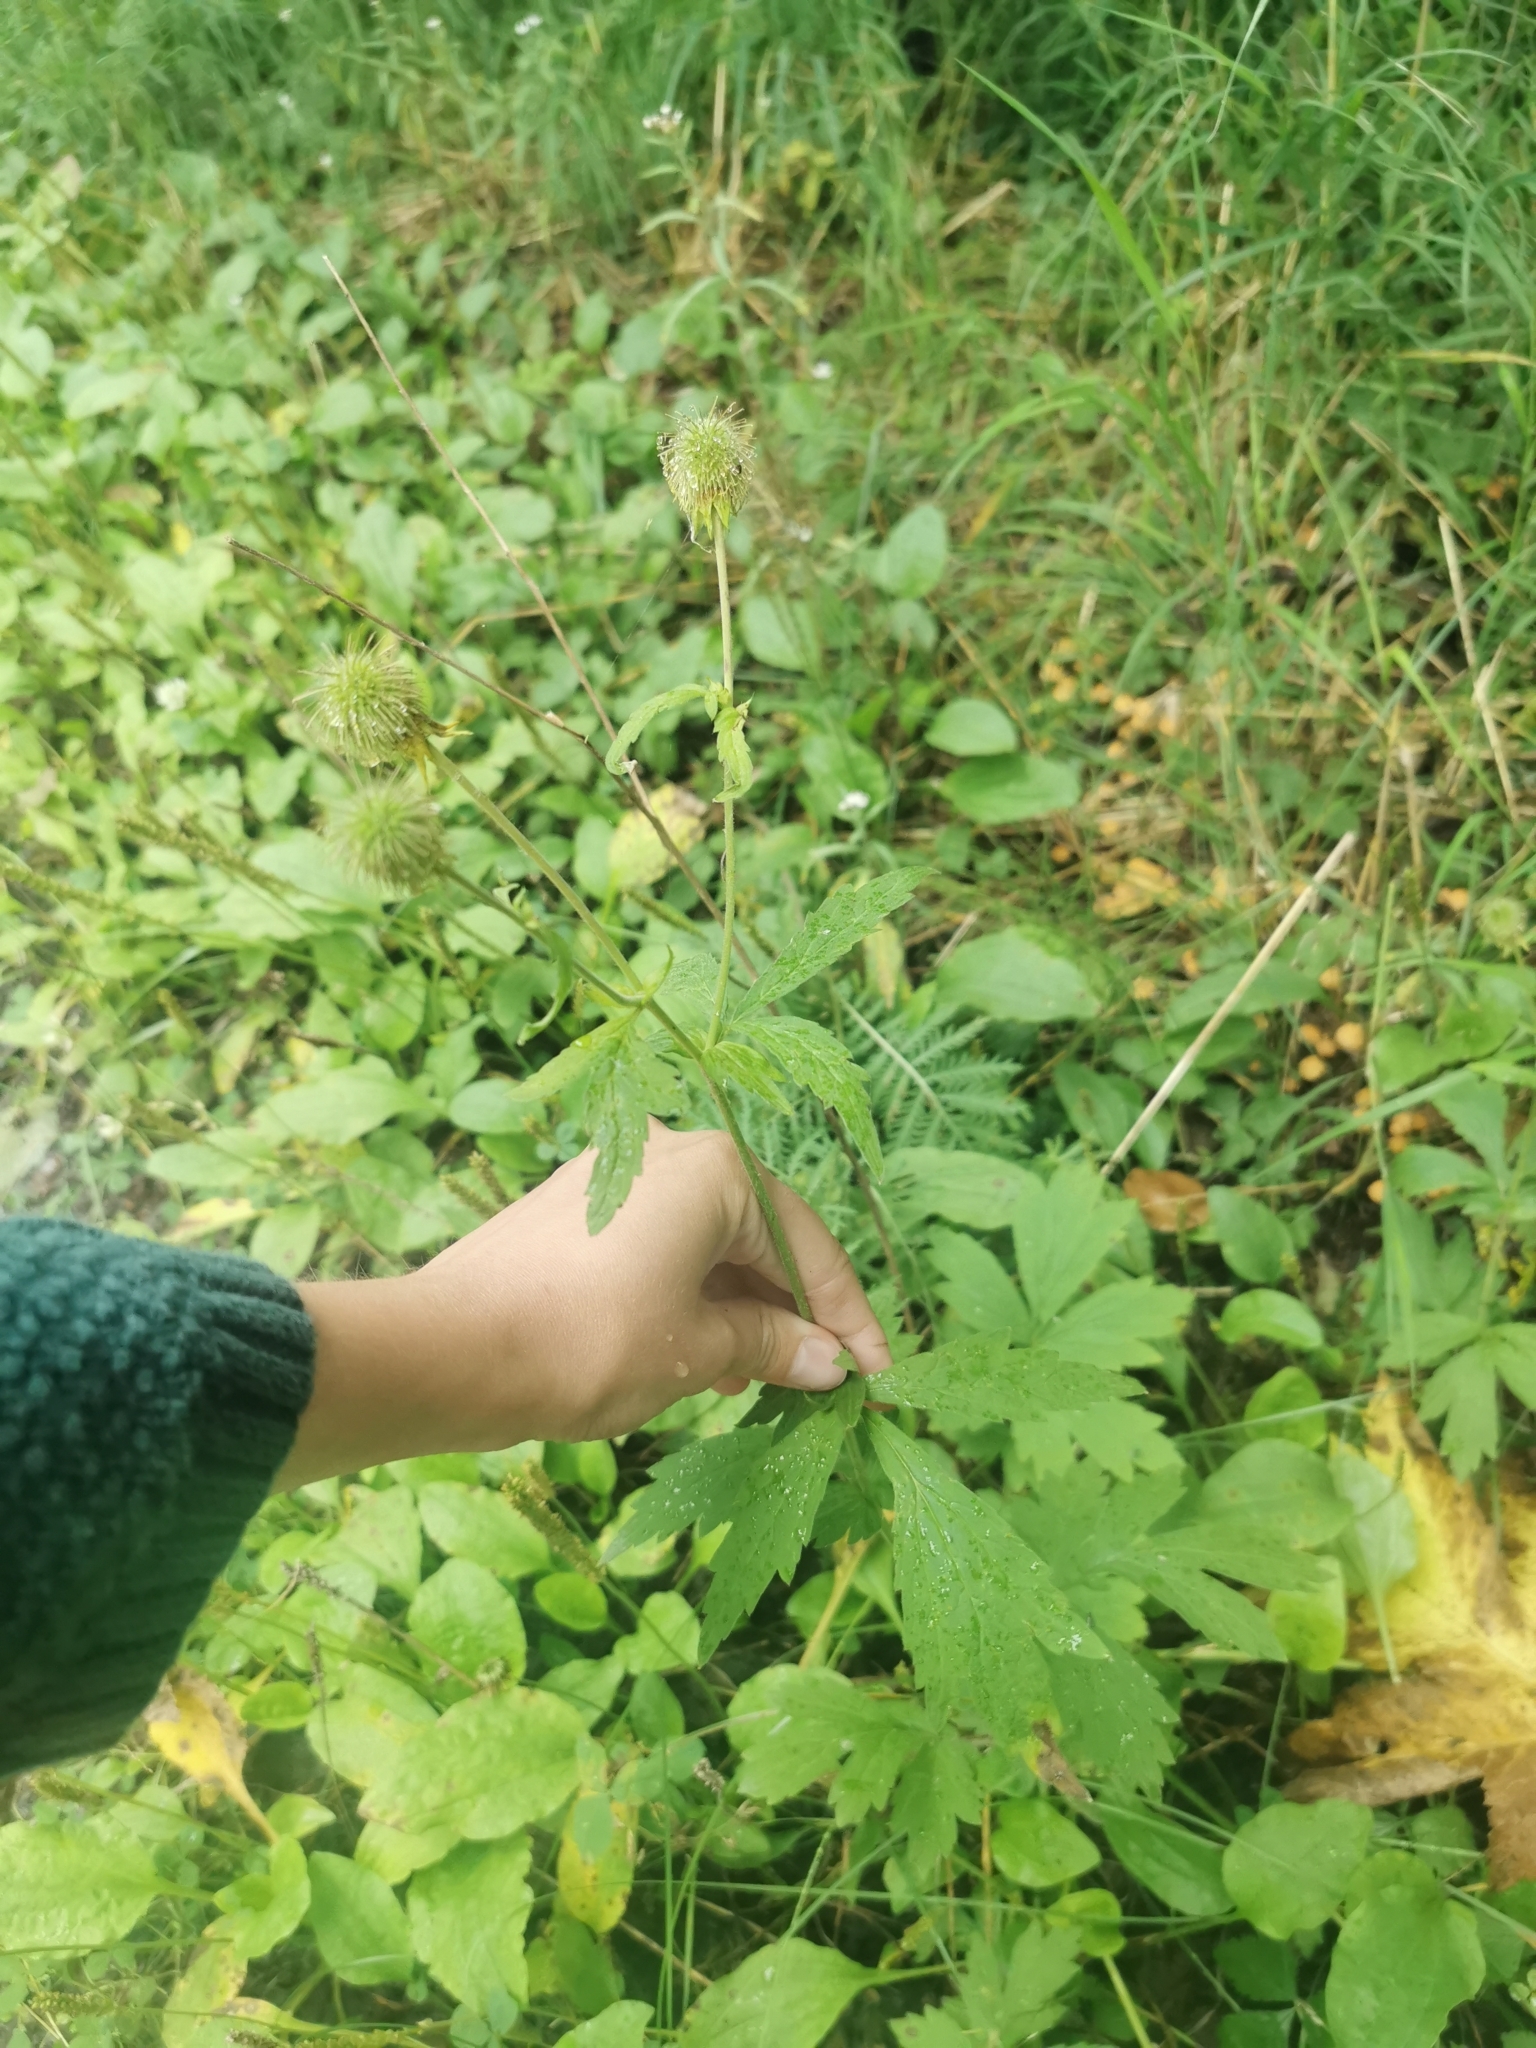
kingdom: Plantae
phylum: Tracheophyta
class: Magnoliopsida
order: Rosales
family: Rosaceae
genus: Geum
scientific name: Geum aleppicum
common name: Yellow avens
